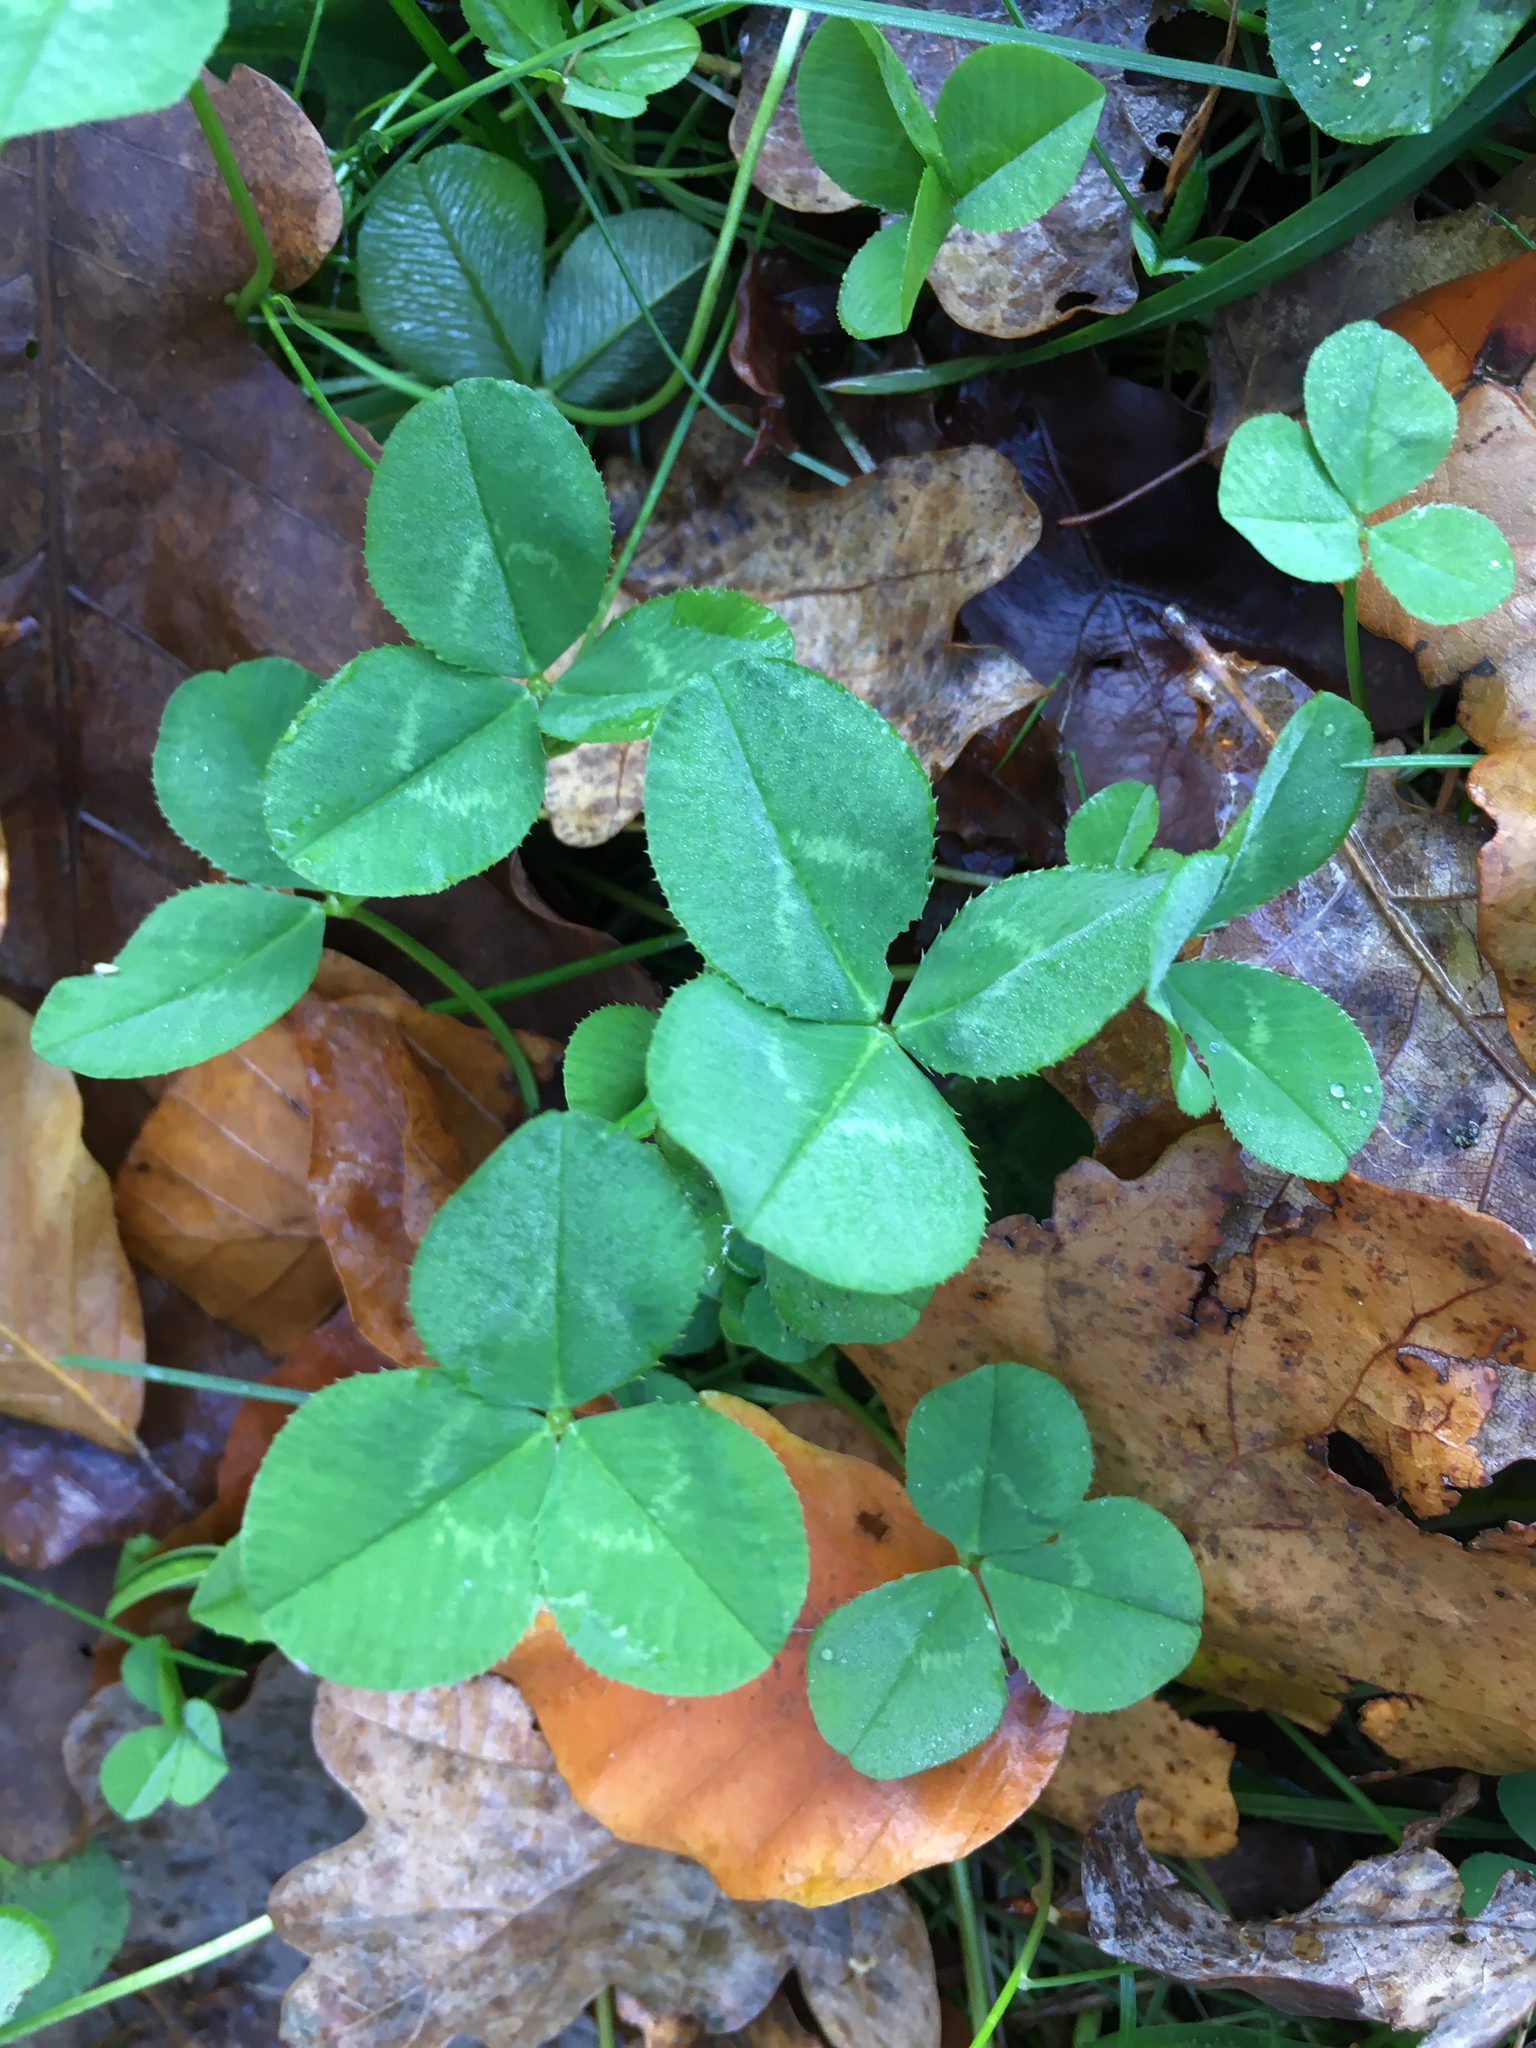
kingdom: Plantae
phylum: Tracheophyta
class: Magnoliopsida
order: Fabales
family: Fabaceae
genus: Trifolium
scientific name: Trifolium repens
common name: White clover
